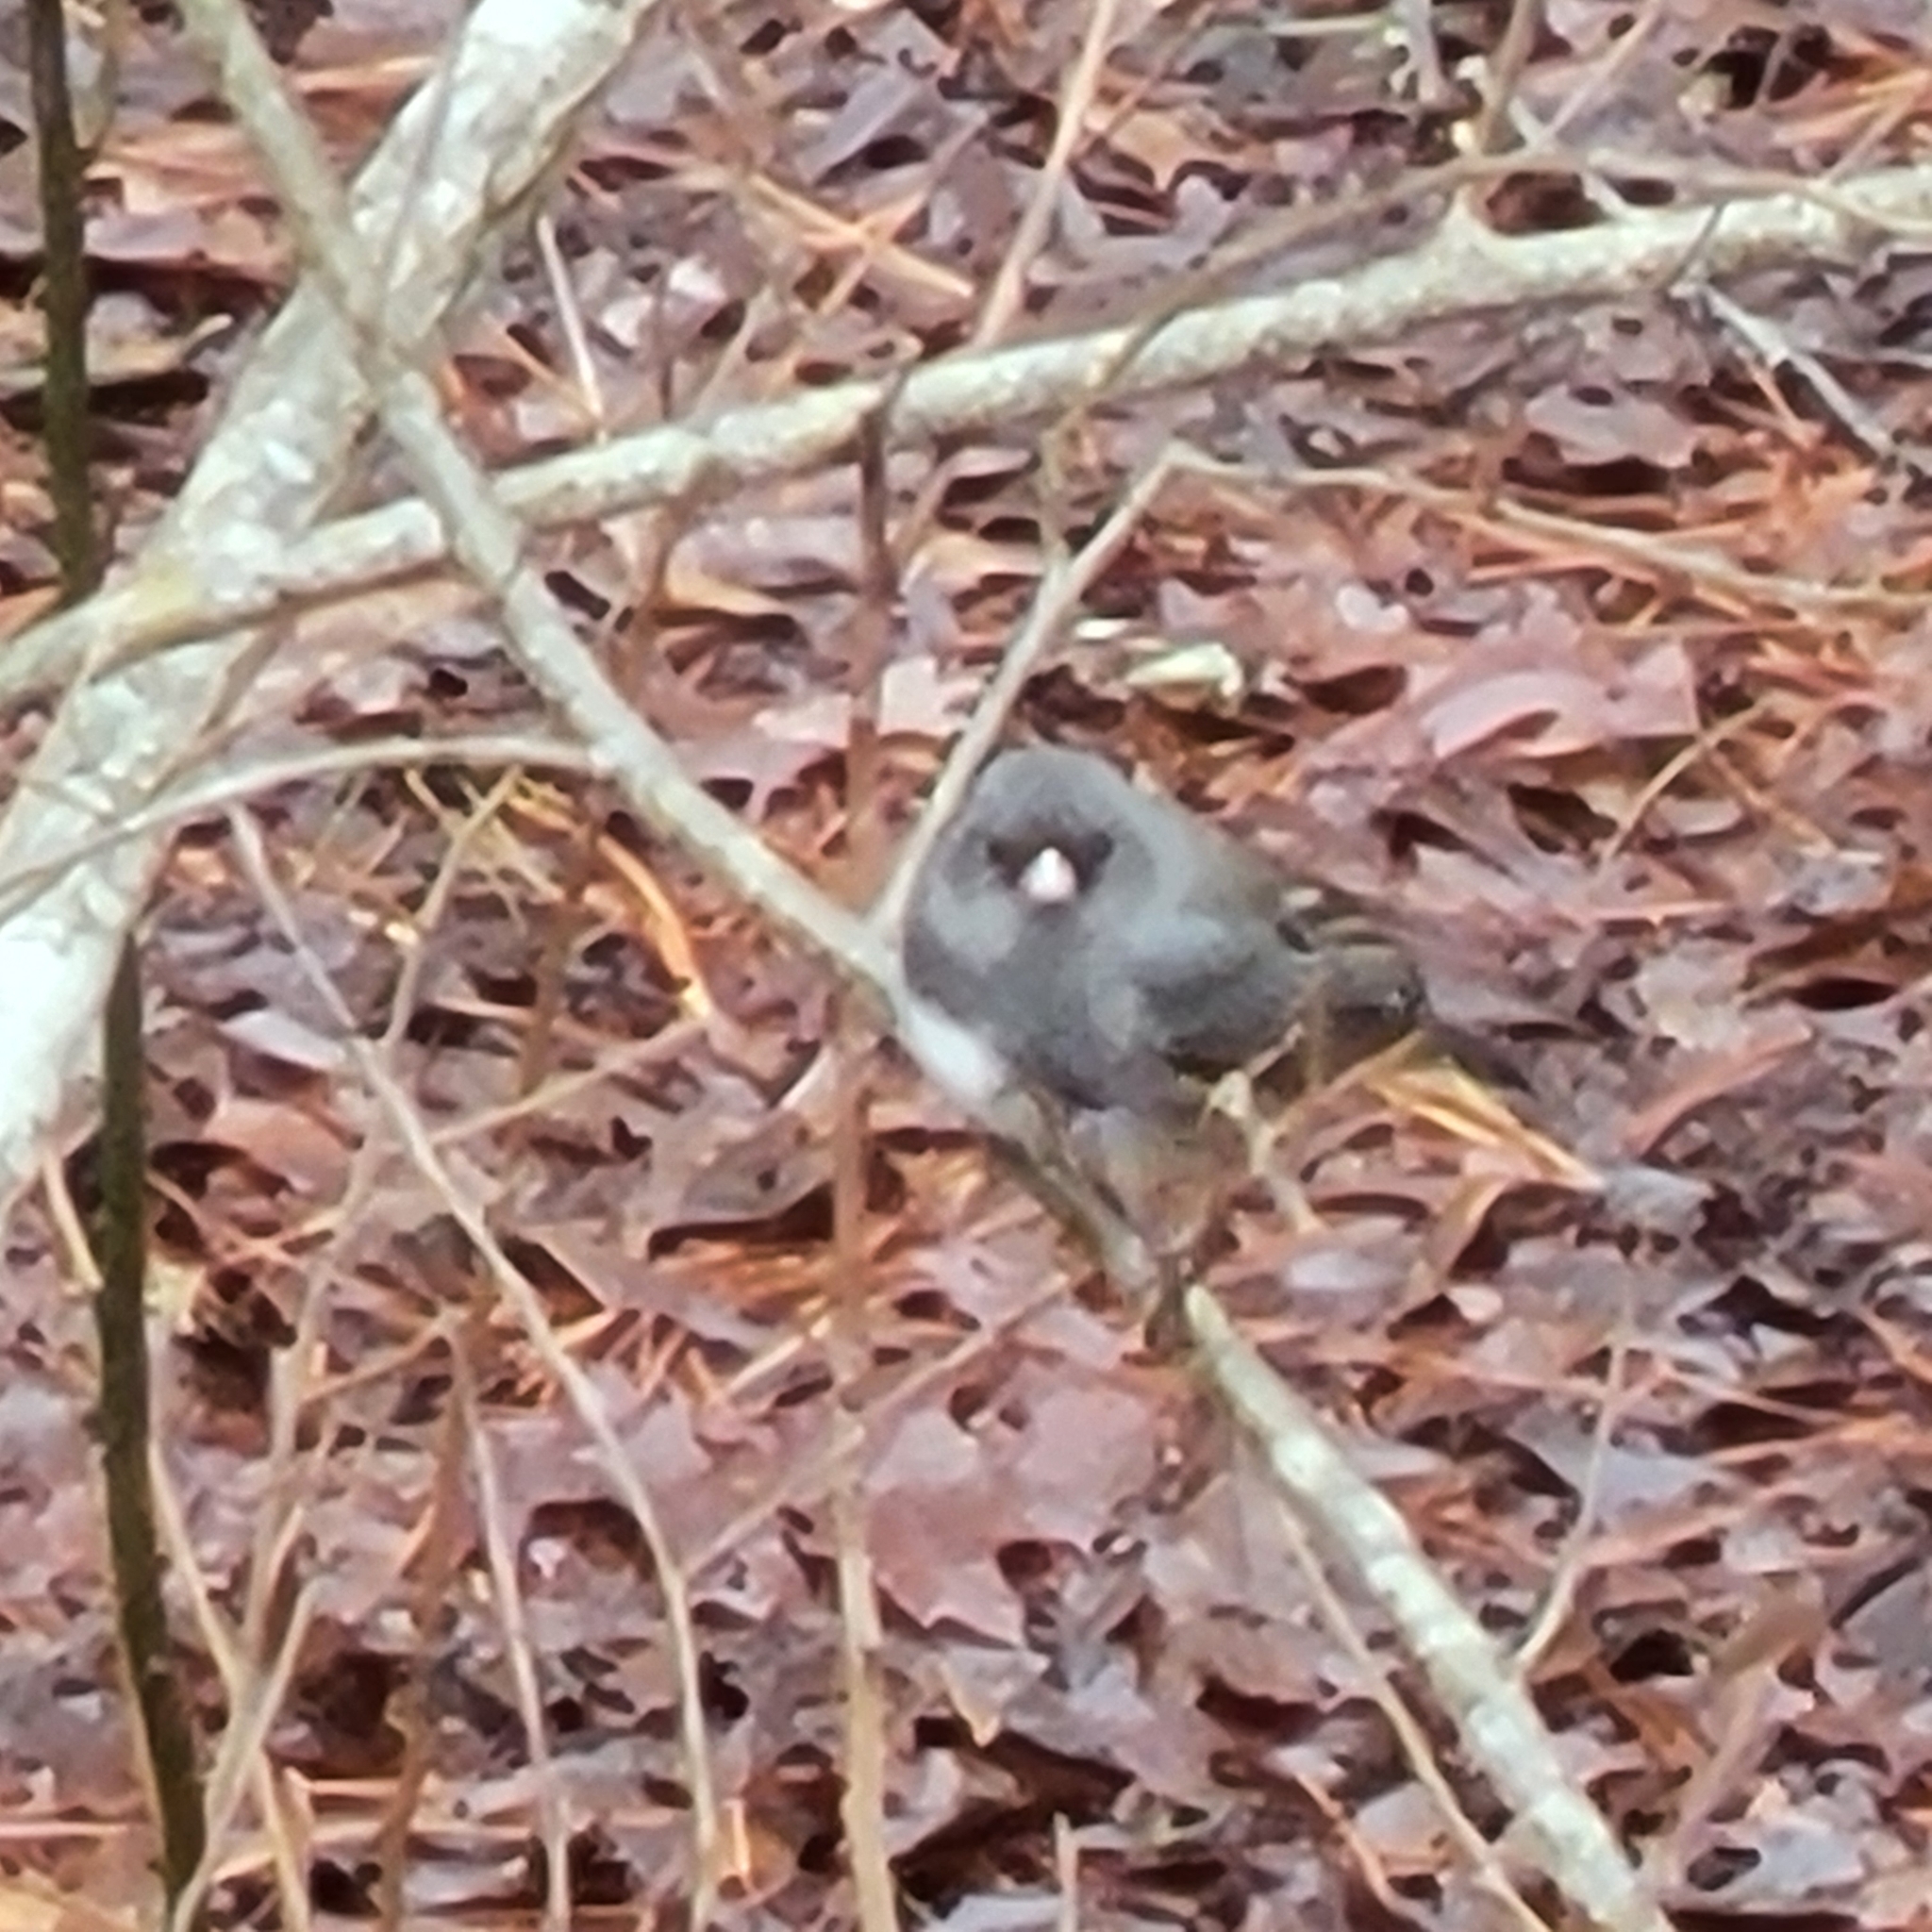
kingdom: Animalia
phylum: Chordata
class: Aves
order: Passeriformes
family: Passerellidae
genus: Junco
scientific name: Junco hyemalis
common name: Dark-eyed junco
